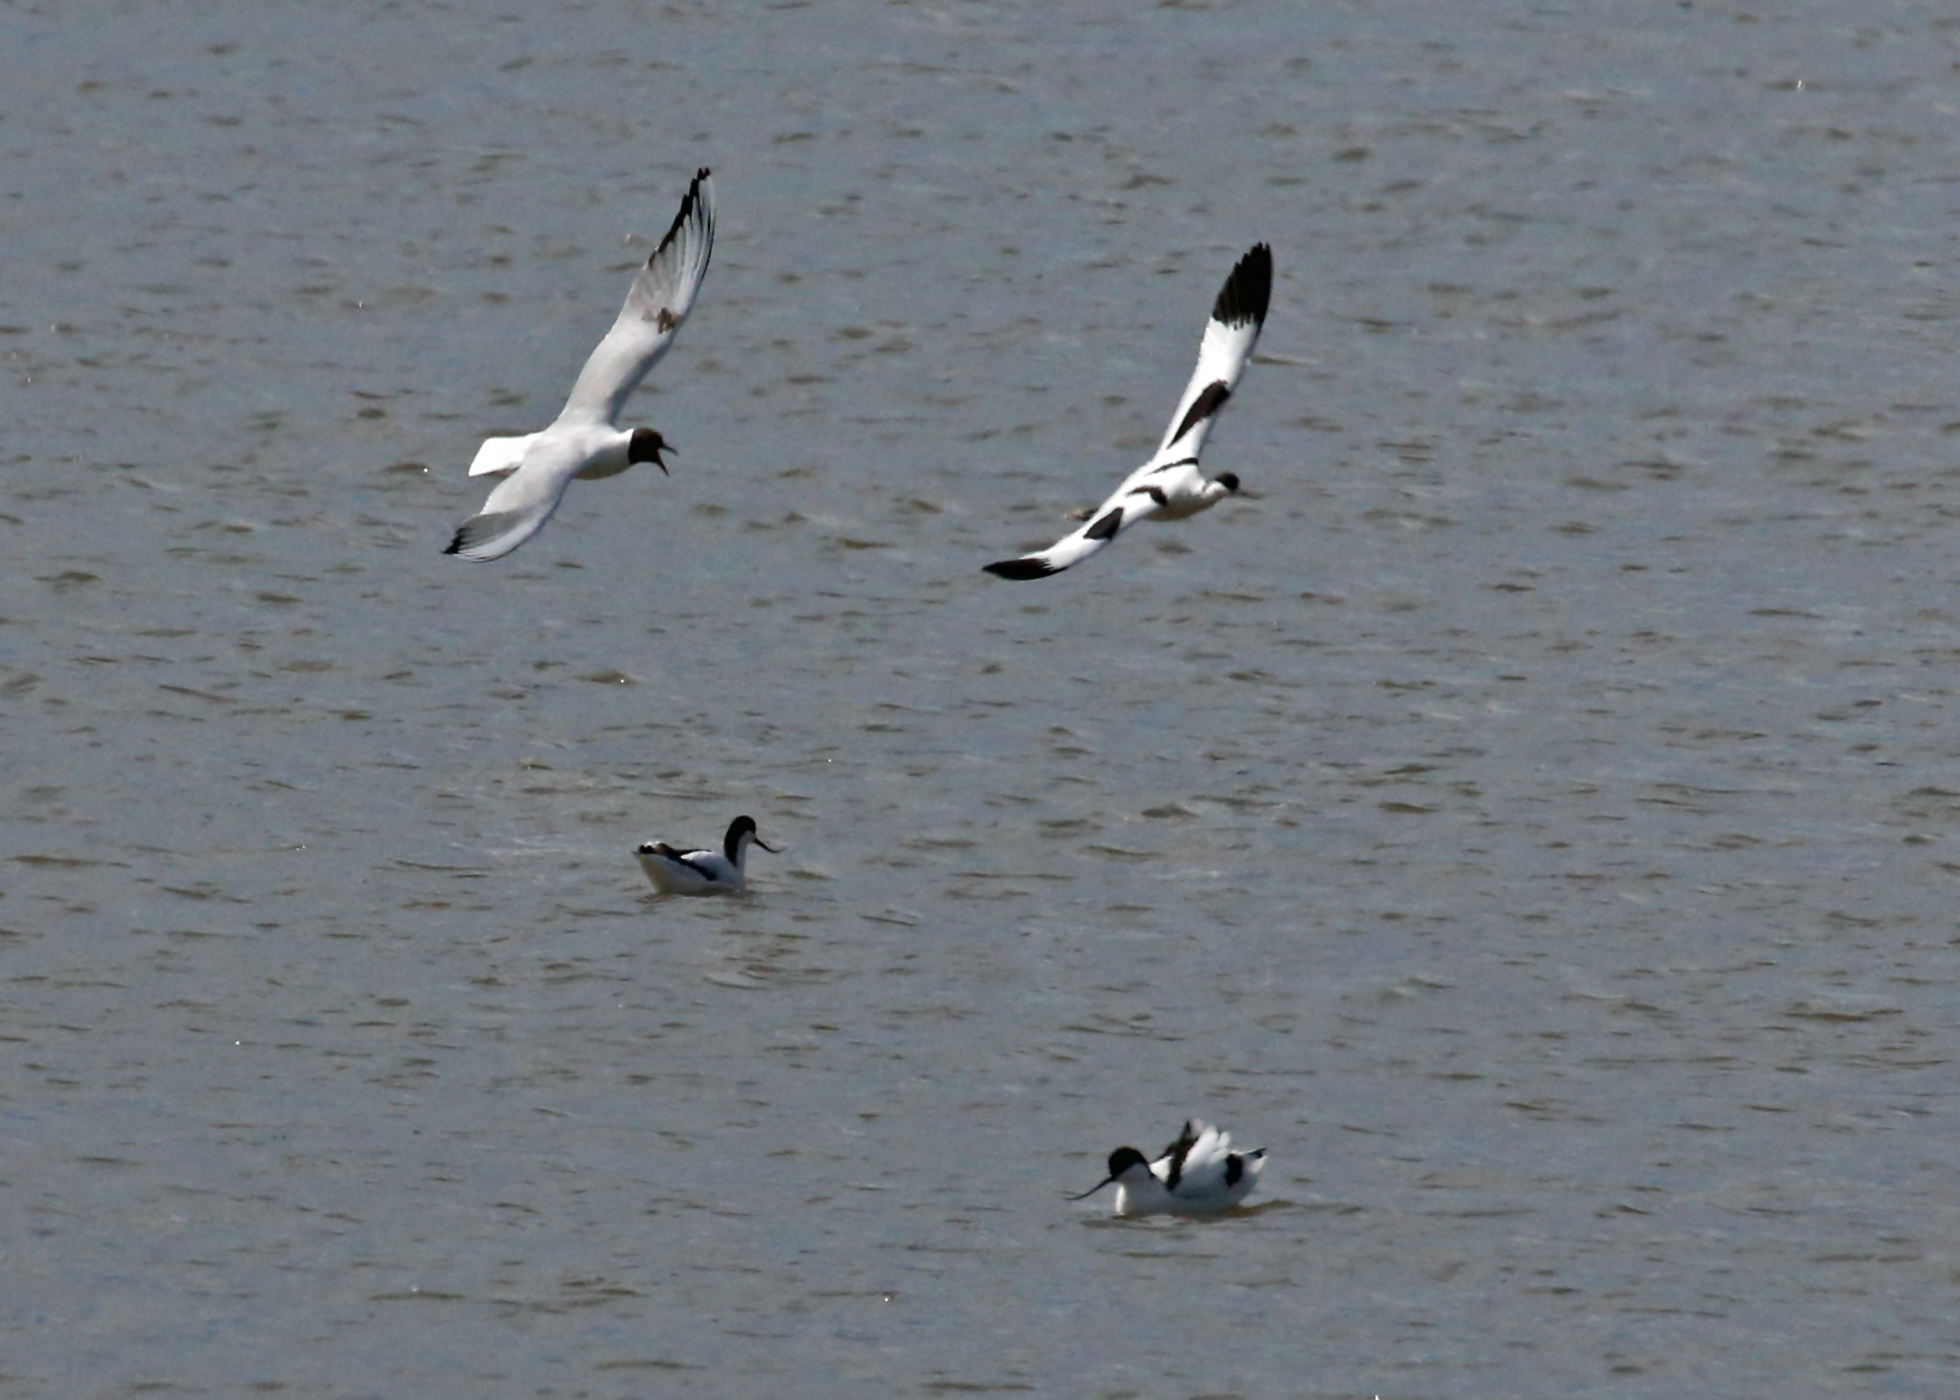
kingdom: Animalia
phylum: Chordata
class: Aves
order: Charadriiformes
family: Recurvirostridae
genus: Recurvirostra
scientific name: Recurvirostra avosetta
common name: Pied avocet
